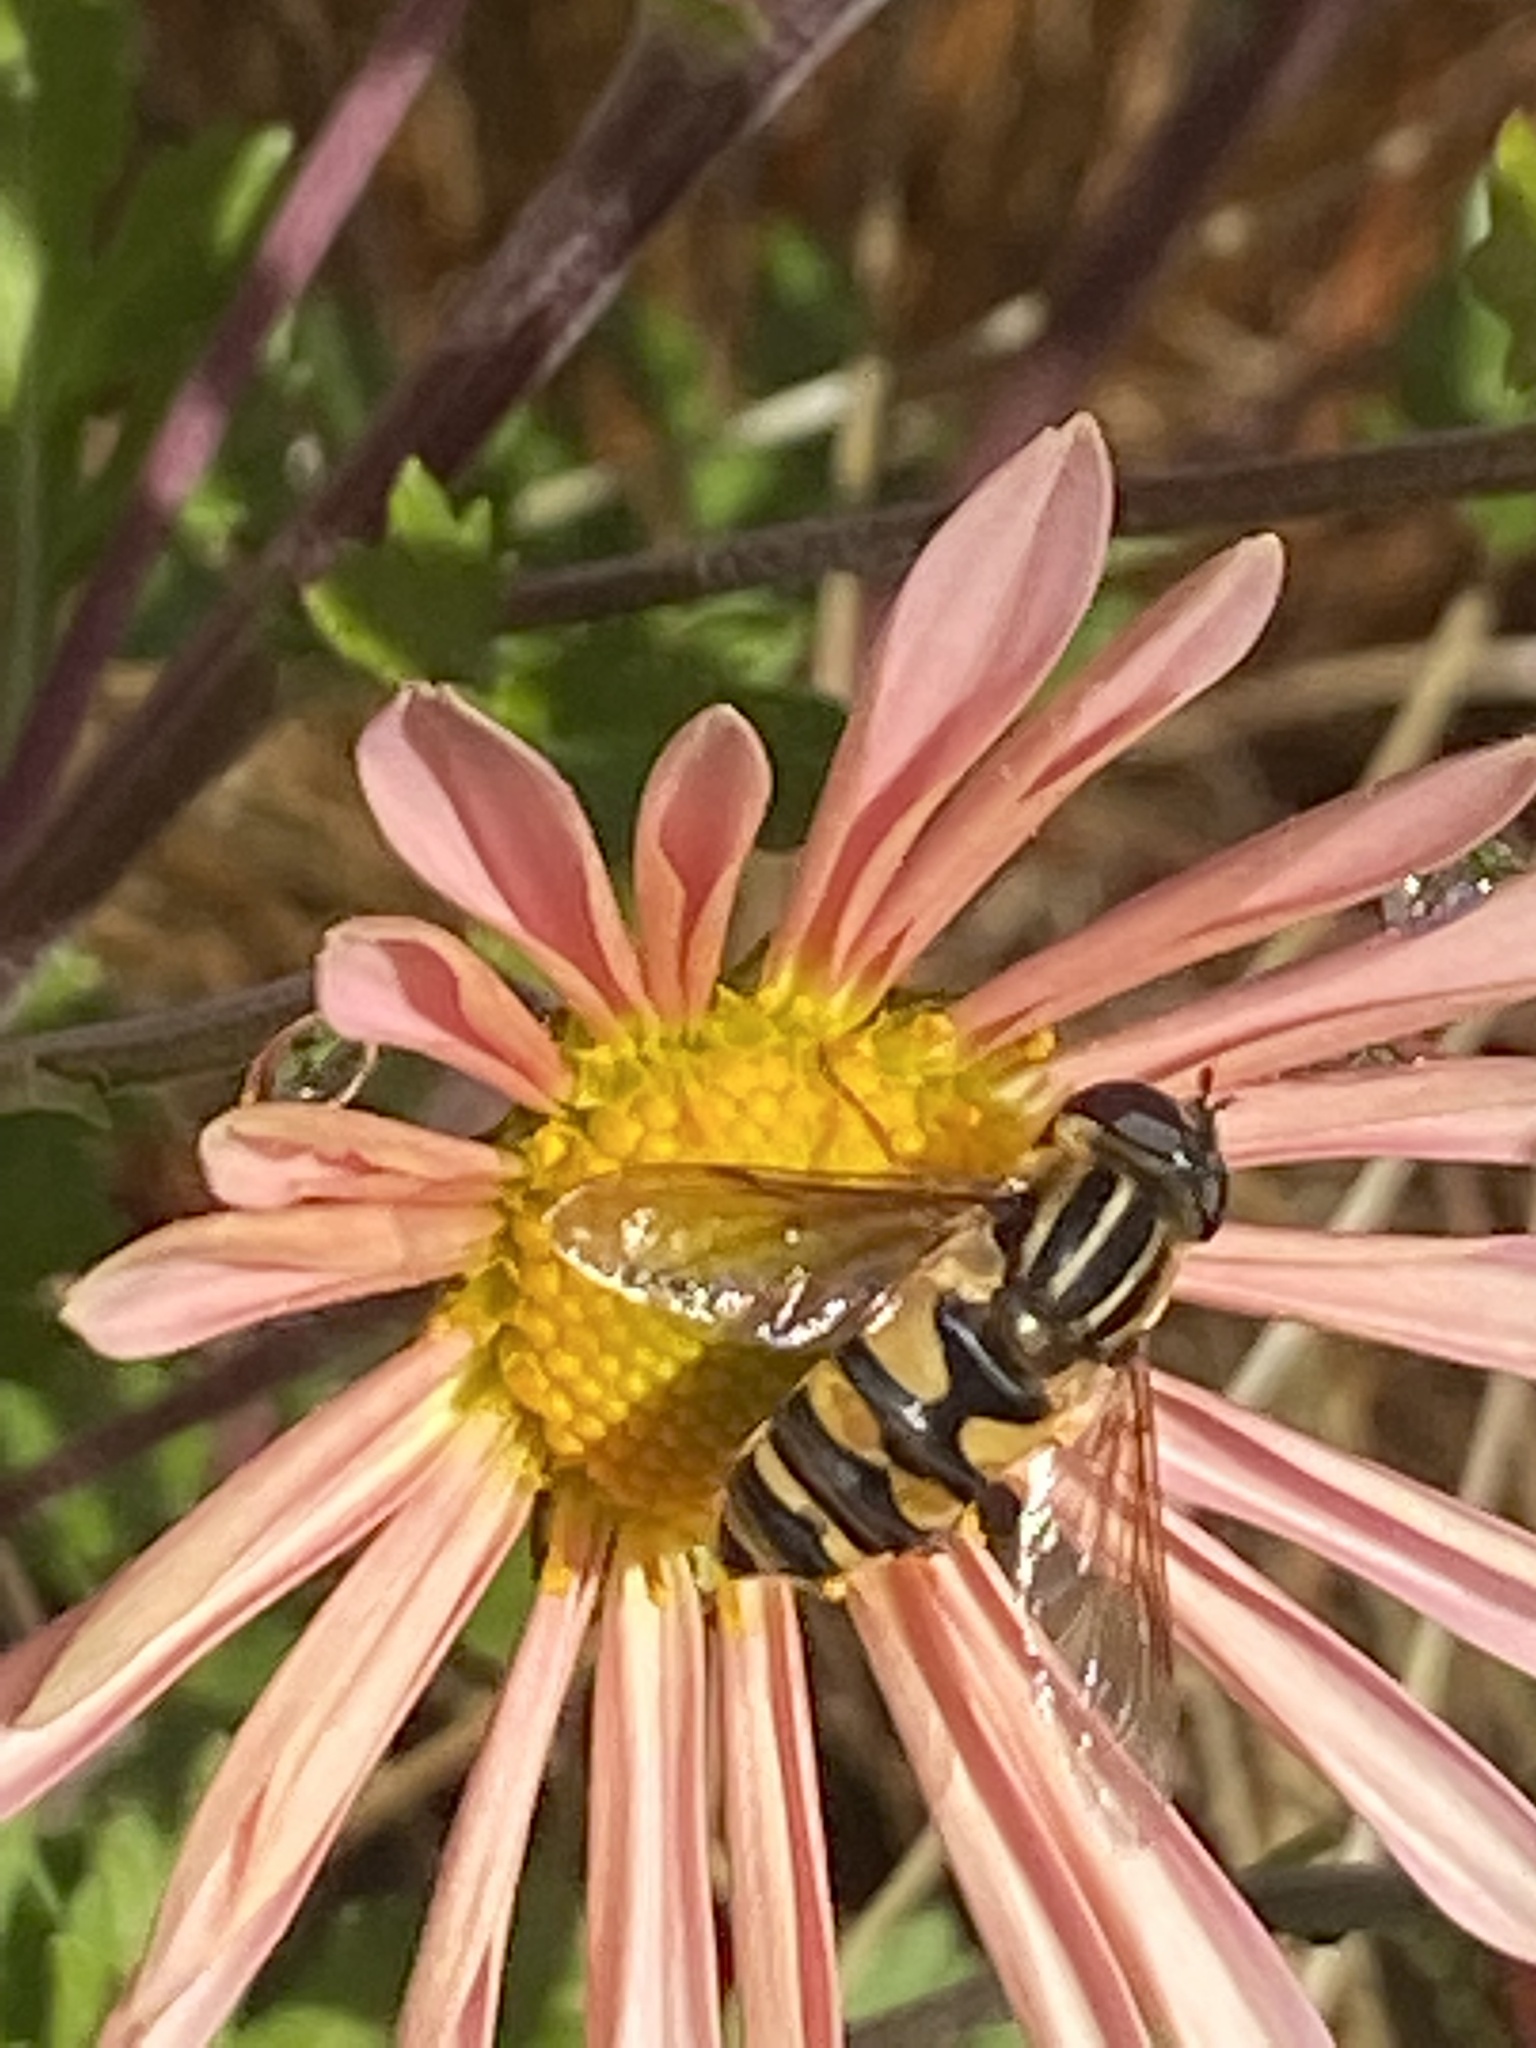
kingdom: Animalia
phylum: Arthropoda
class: Insecta
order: Diptera
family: Syrphidae
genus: Helophilus
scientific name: Helophilus fasciatus
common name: Narrow-headed marsh fly
